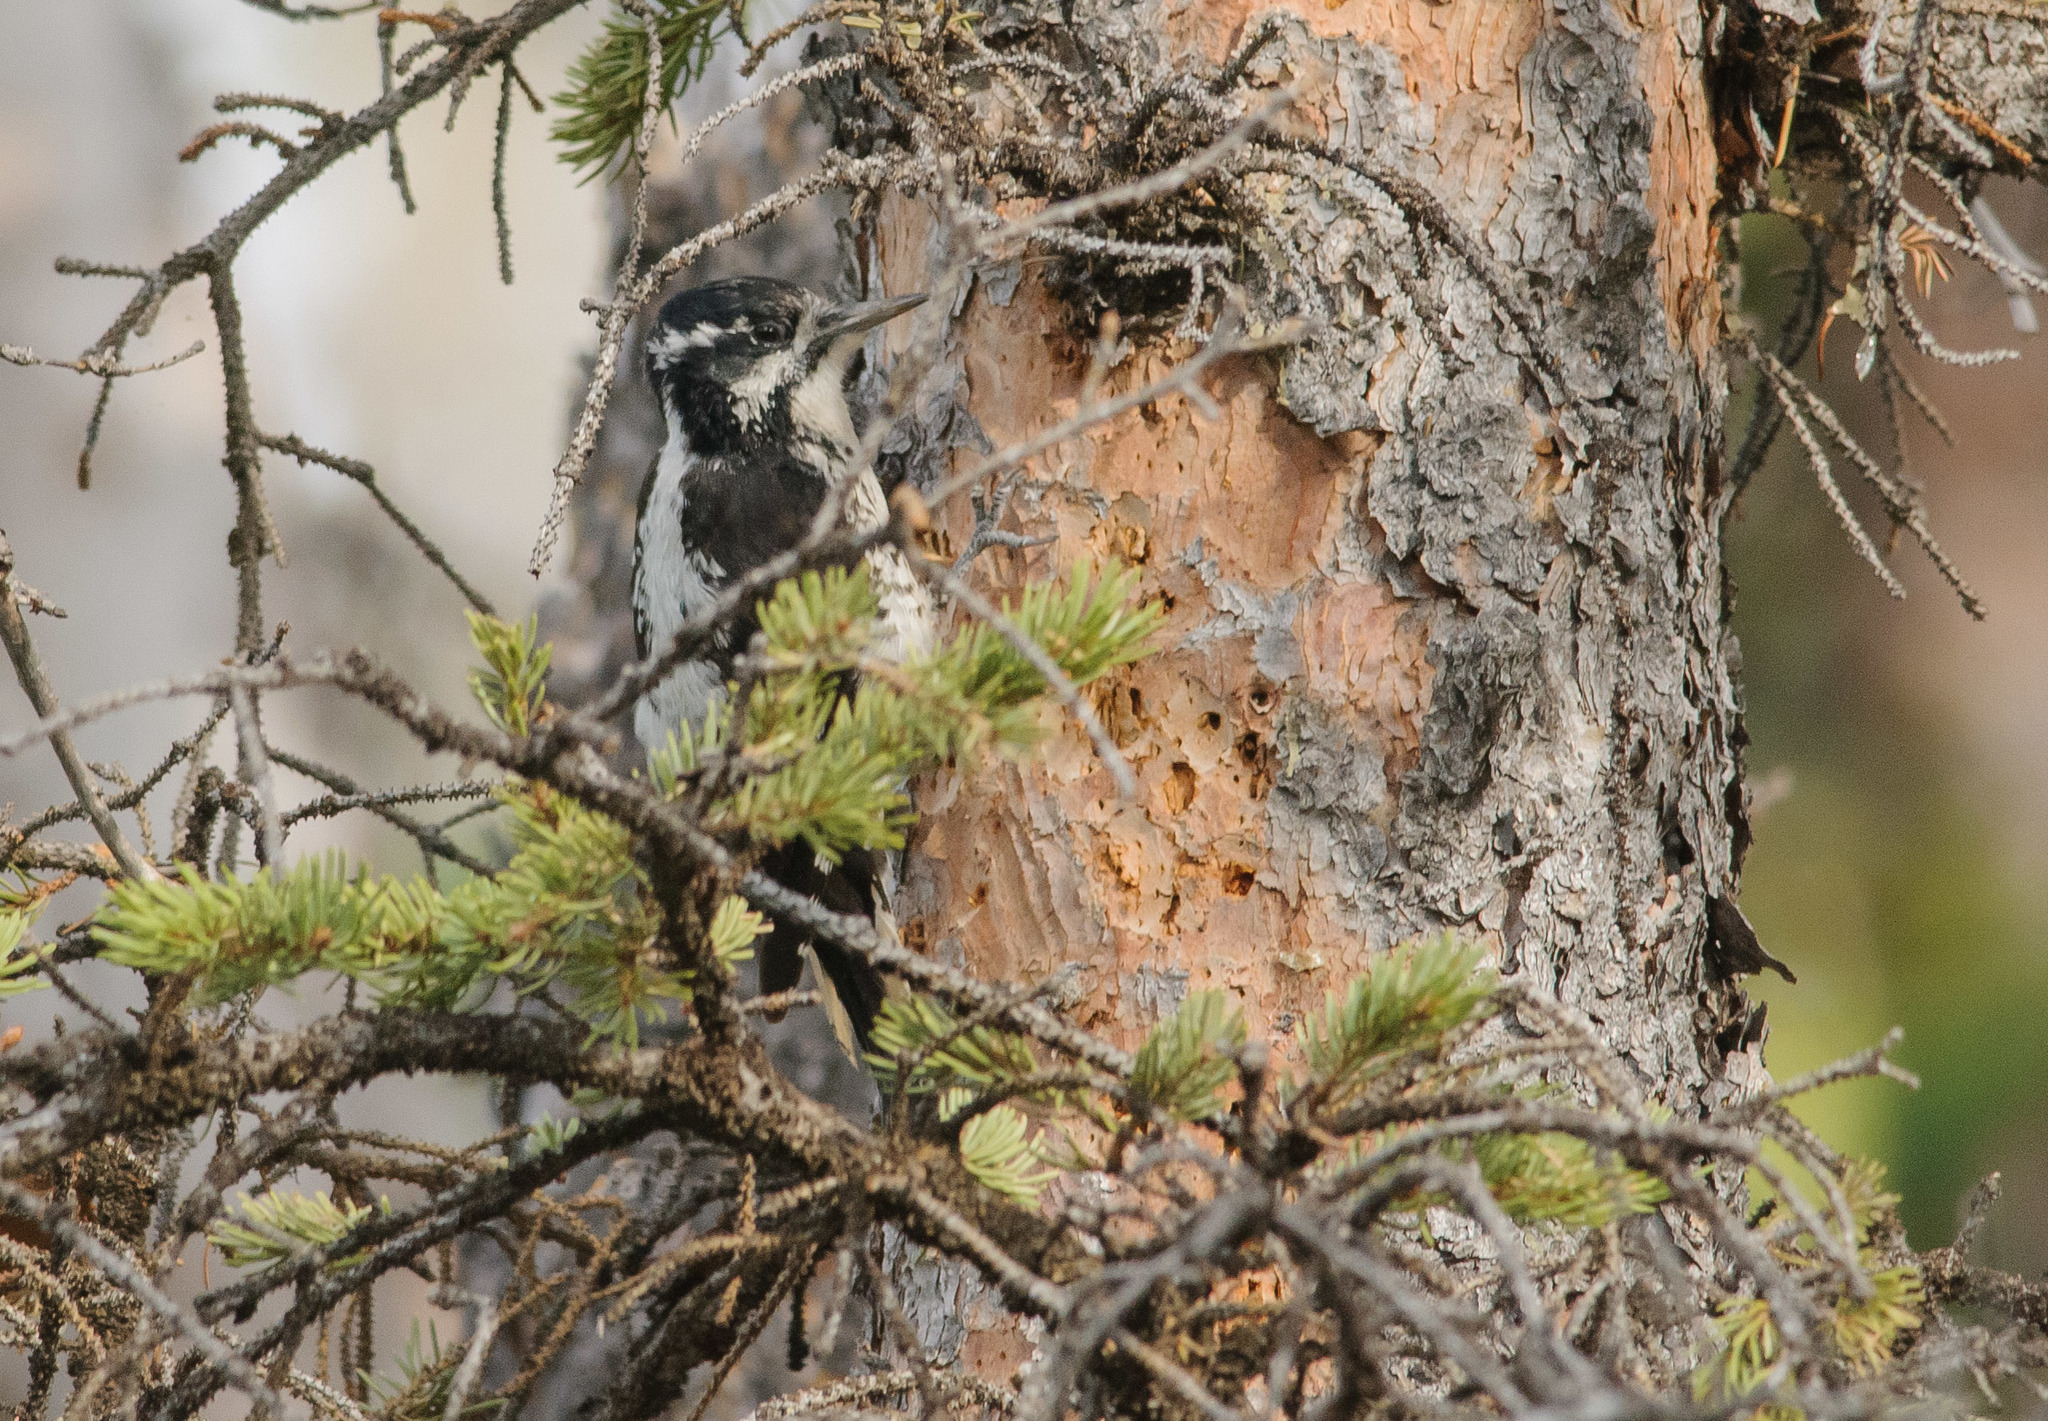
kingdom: Animalia
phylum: Chordata
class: Aves
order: Piciformes
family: Picidae
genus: Picoides
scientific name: Picoides dorsalis
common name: American three-toed woodpecker
